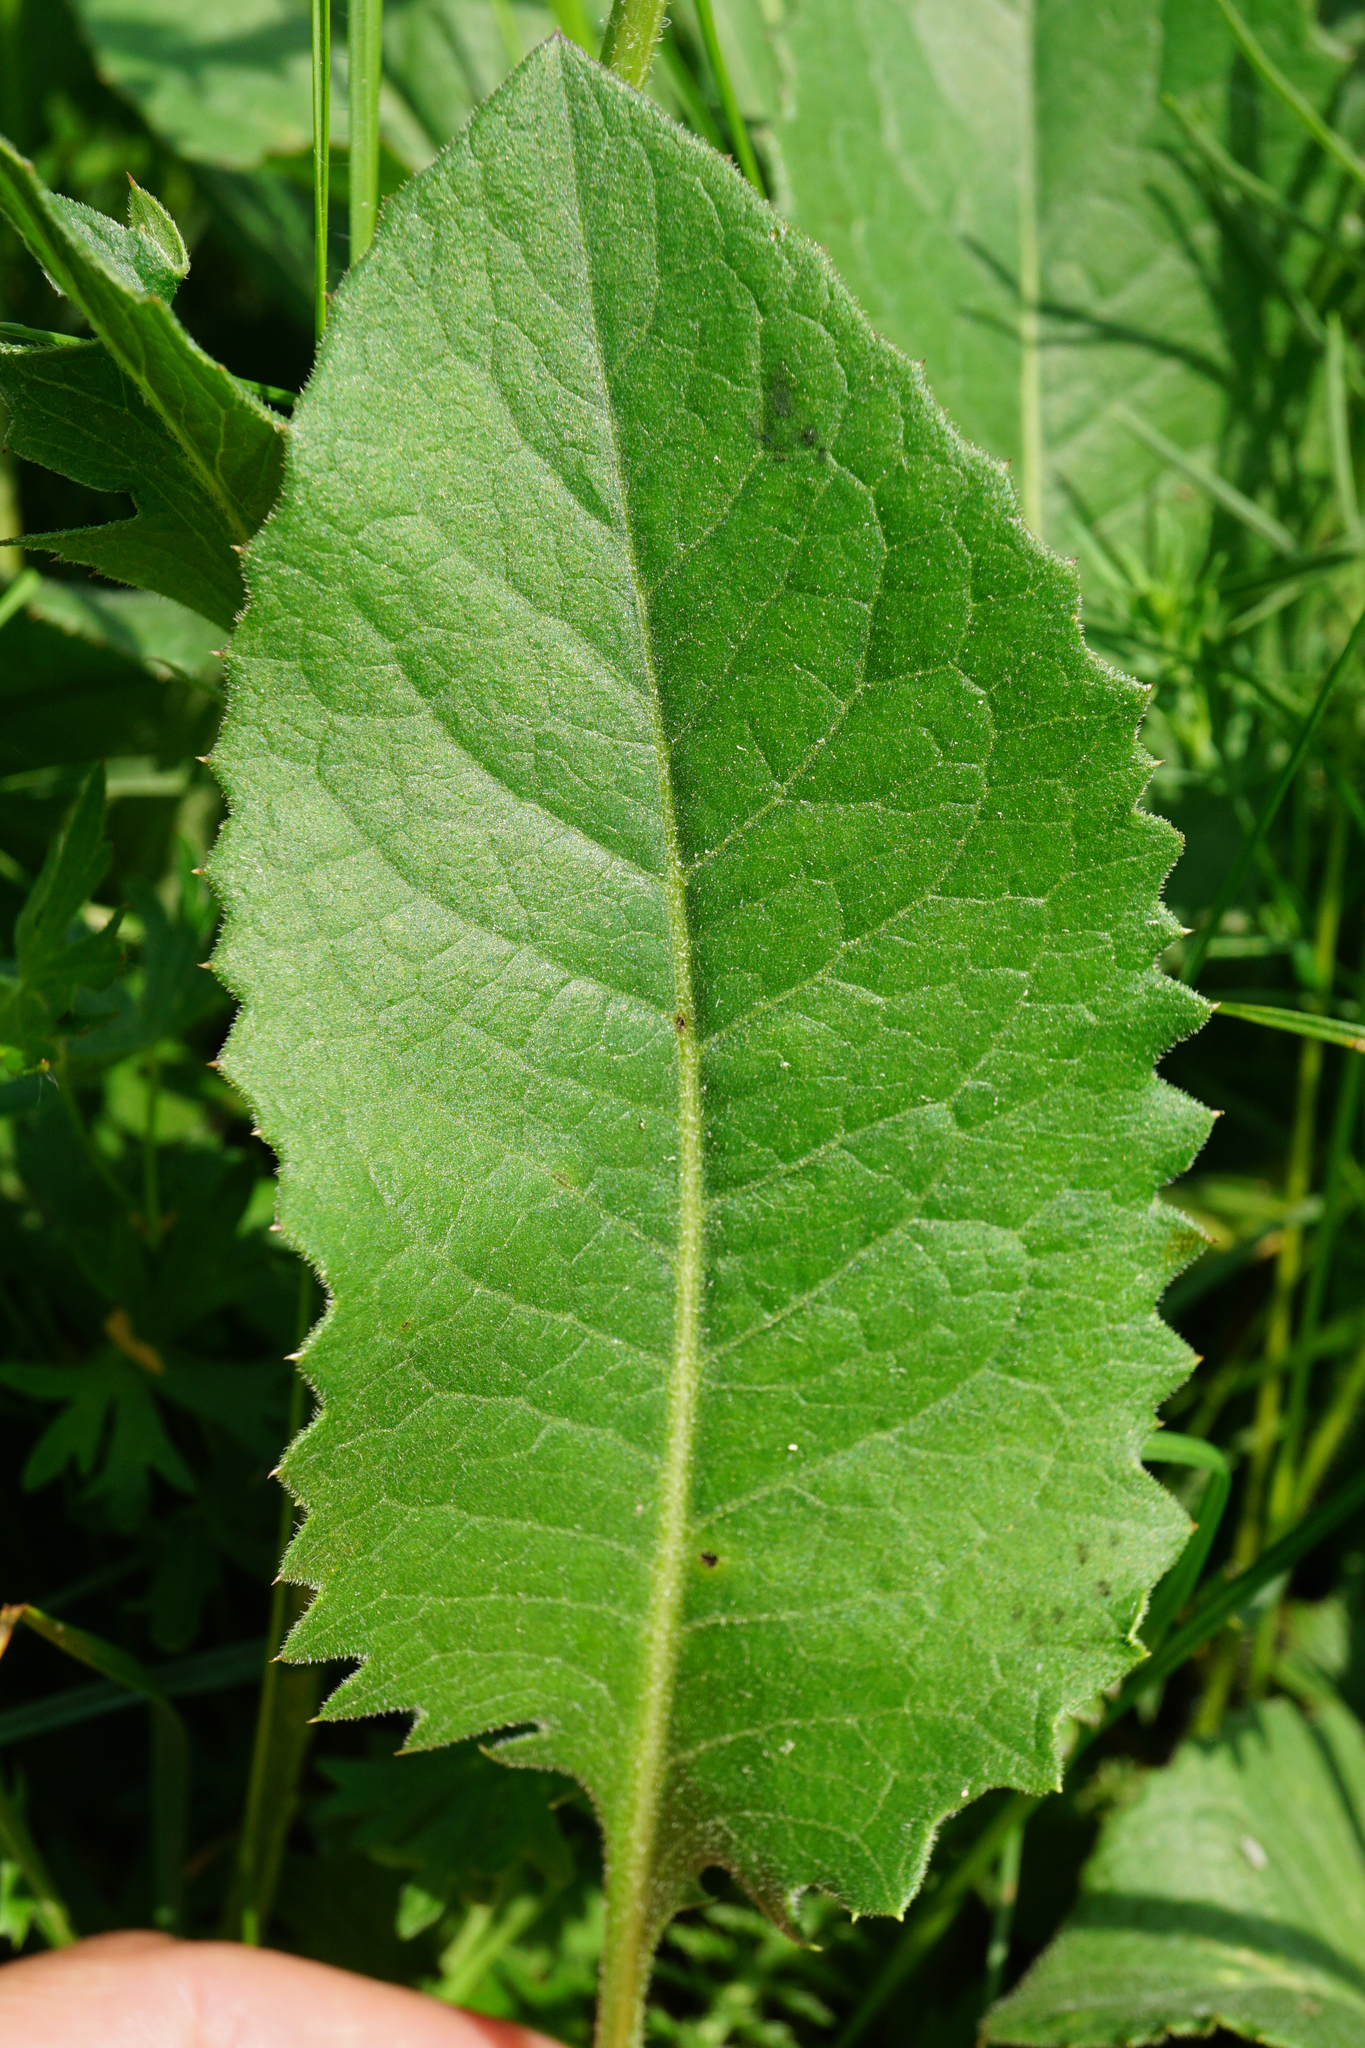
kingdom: Plantae
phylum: Tracheophyta
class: Magnoliopsida
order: Asterales
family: Asteraceae
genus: Klasea
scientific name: Klasea lycopifolia
